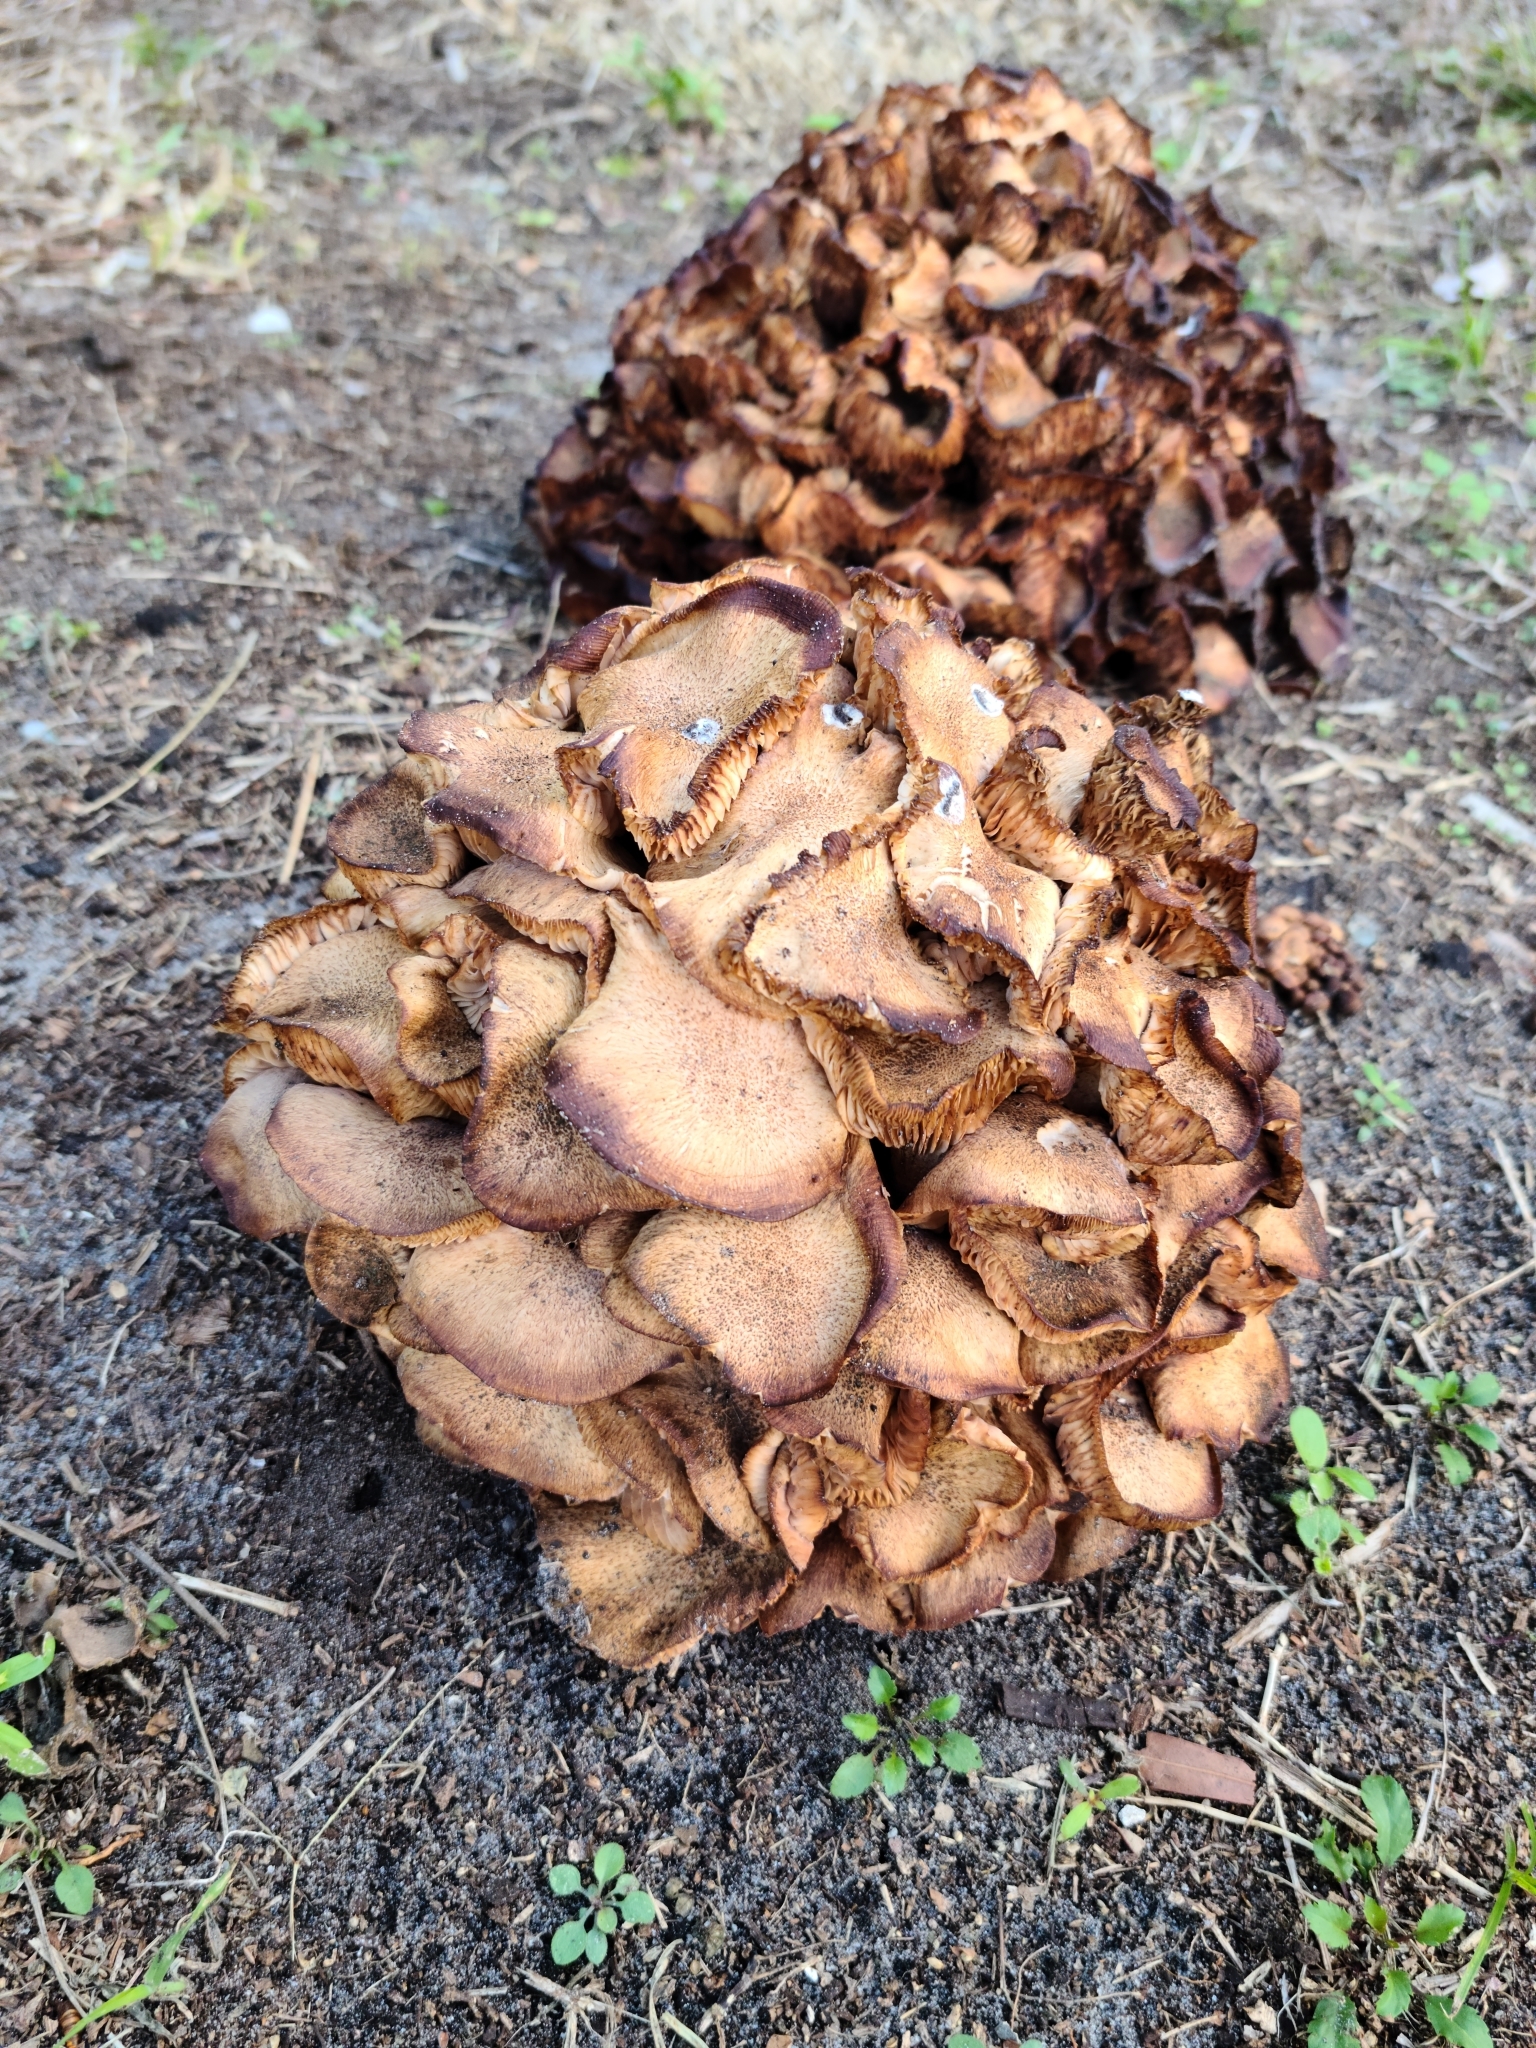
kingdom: Fungi
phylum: Basidiomycota
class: Agaricomycetes
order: Agaricales
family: Physalacriaceae
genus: Desarmillaria
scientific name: Desarmillaria caespitosa
